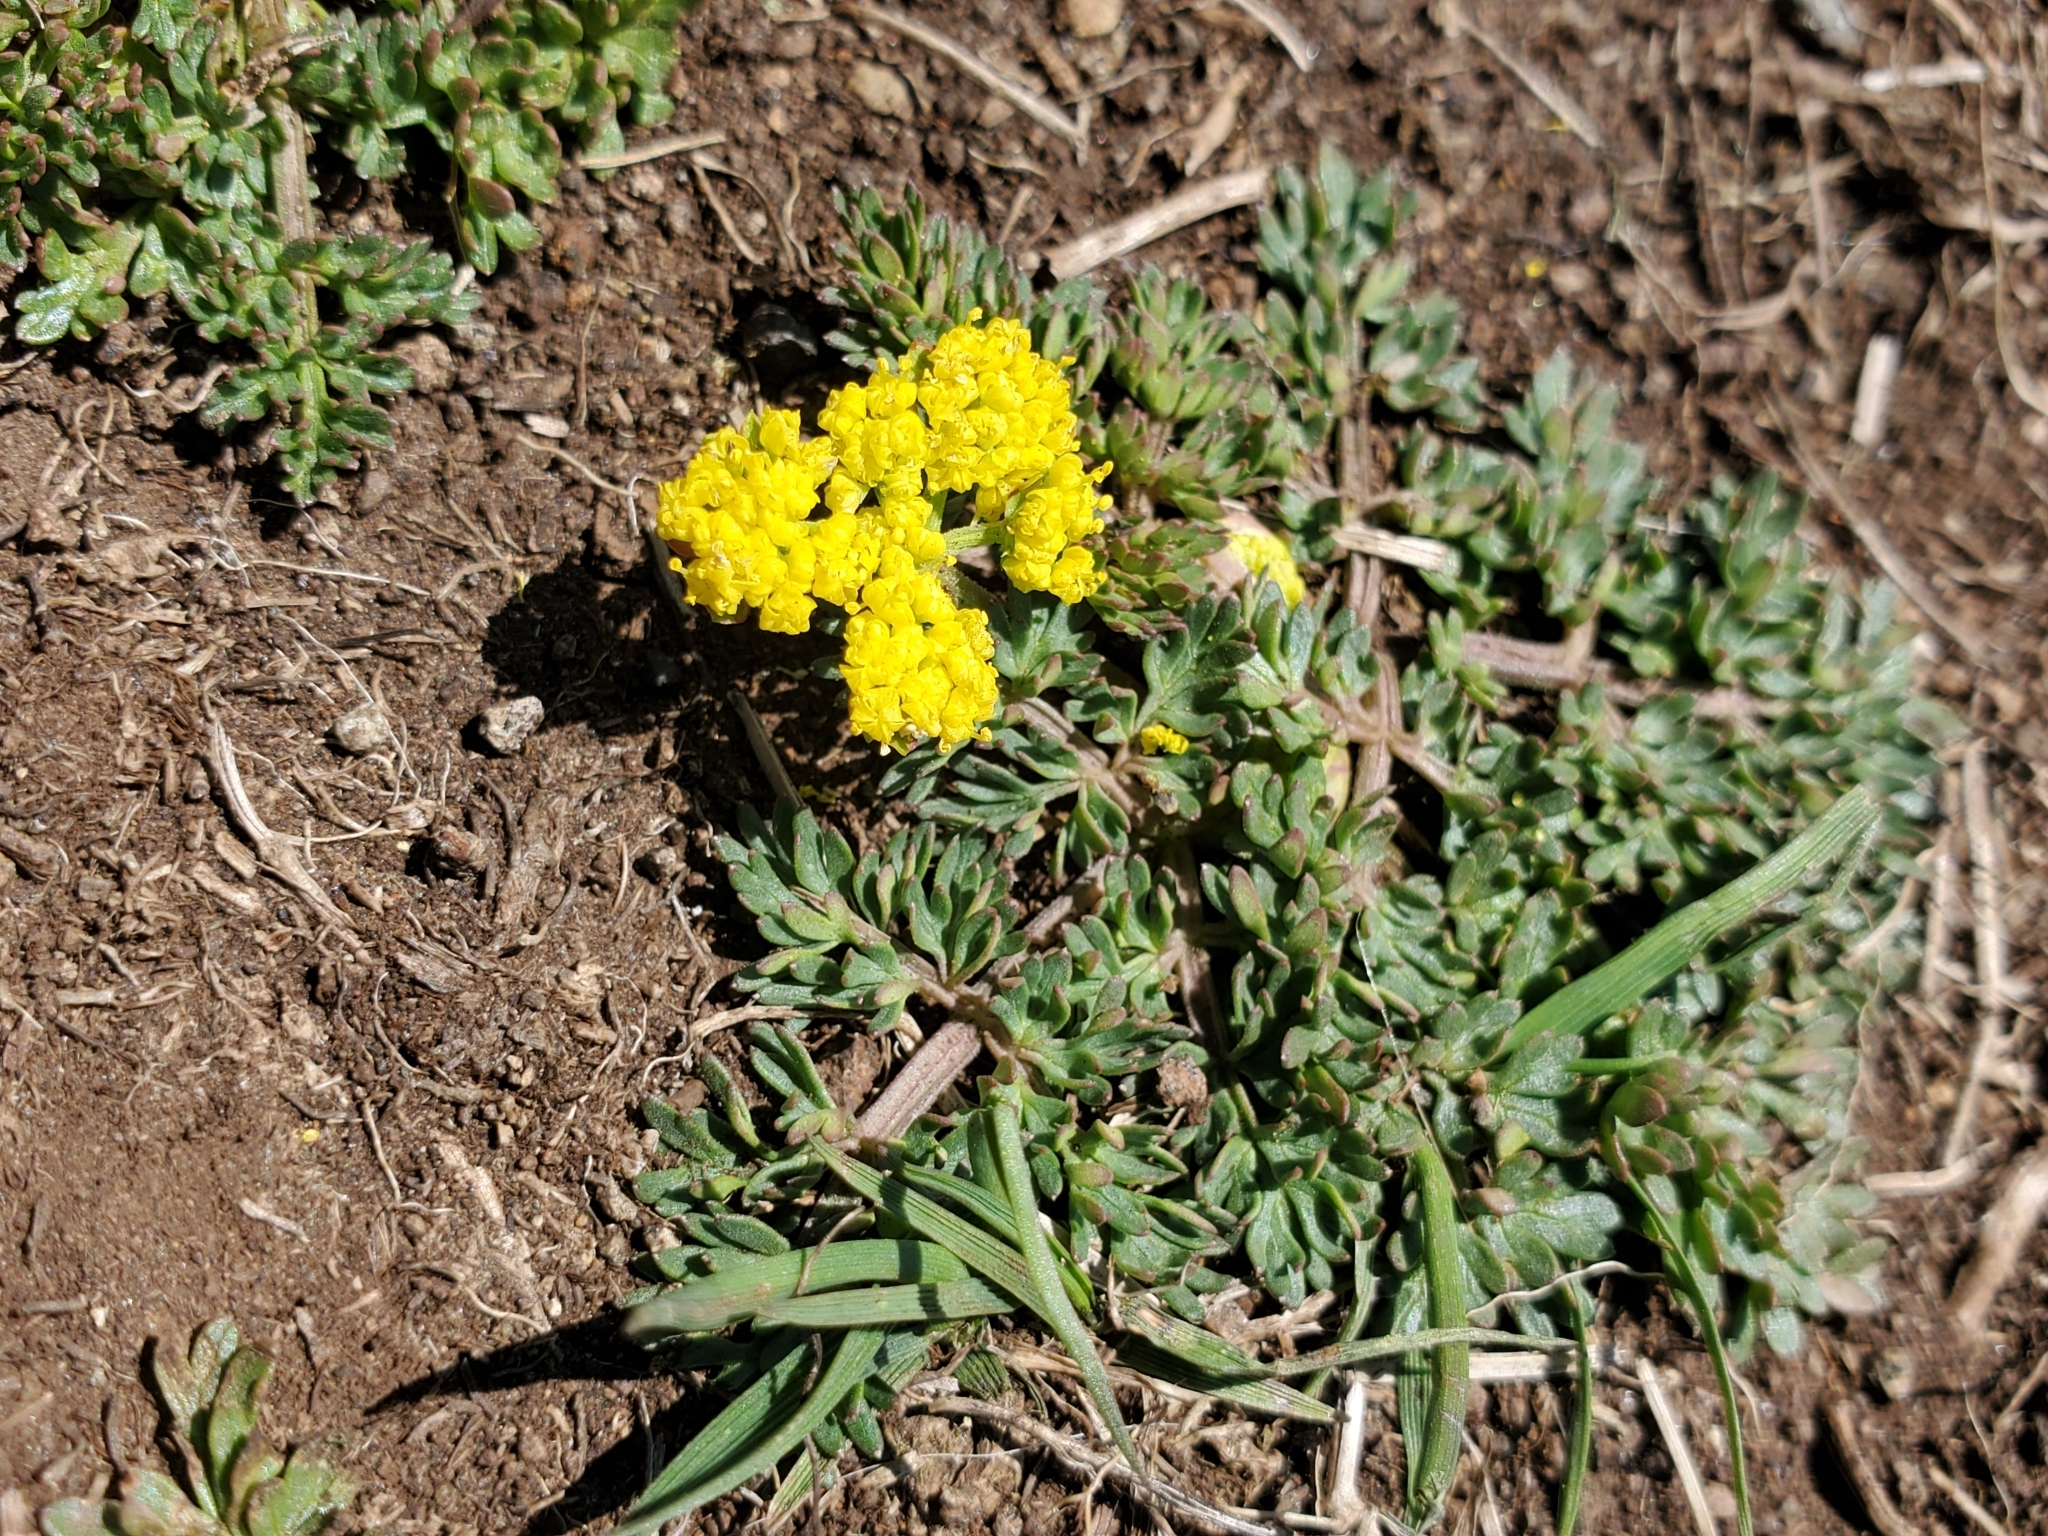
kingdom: Plantae
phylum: Tracheophyta
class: Magnoliopsida
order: Apiales
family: Apiaceae
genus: Lomatium
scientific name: Lomatium utriculatum
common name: Fine-leaf desert-parsley
